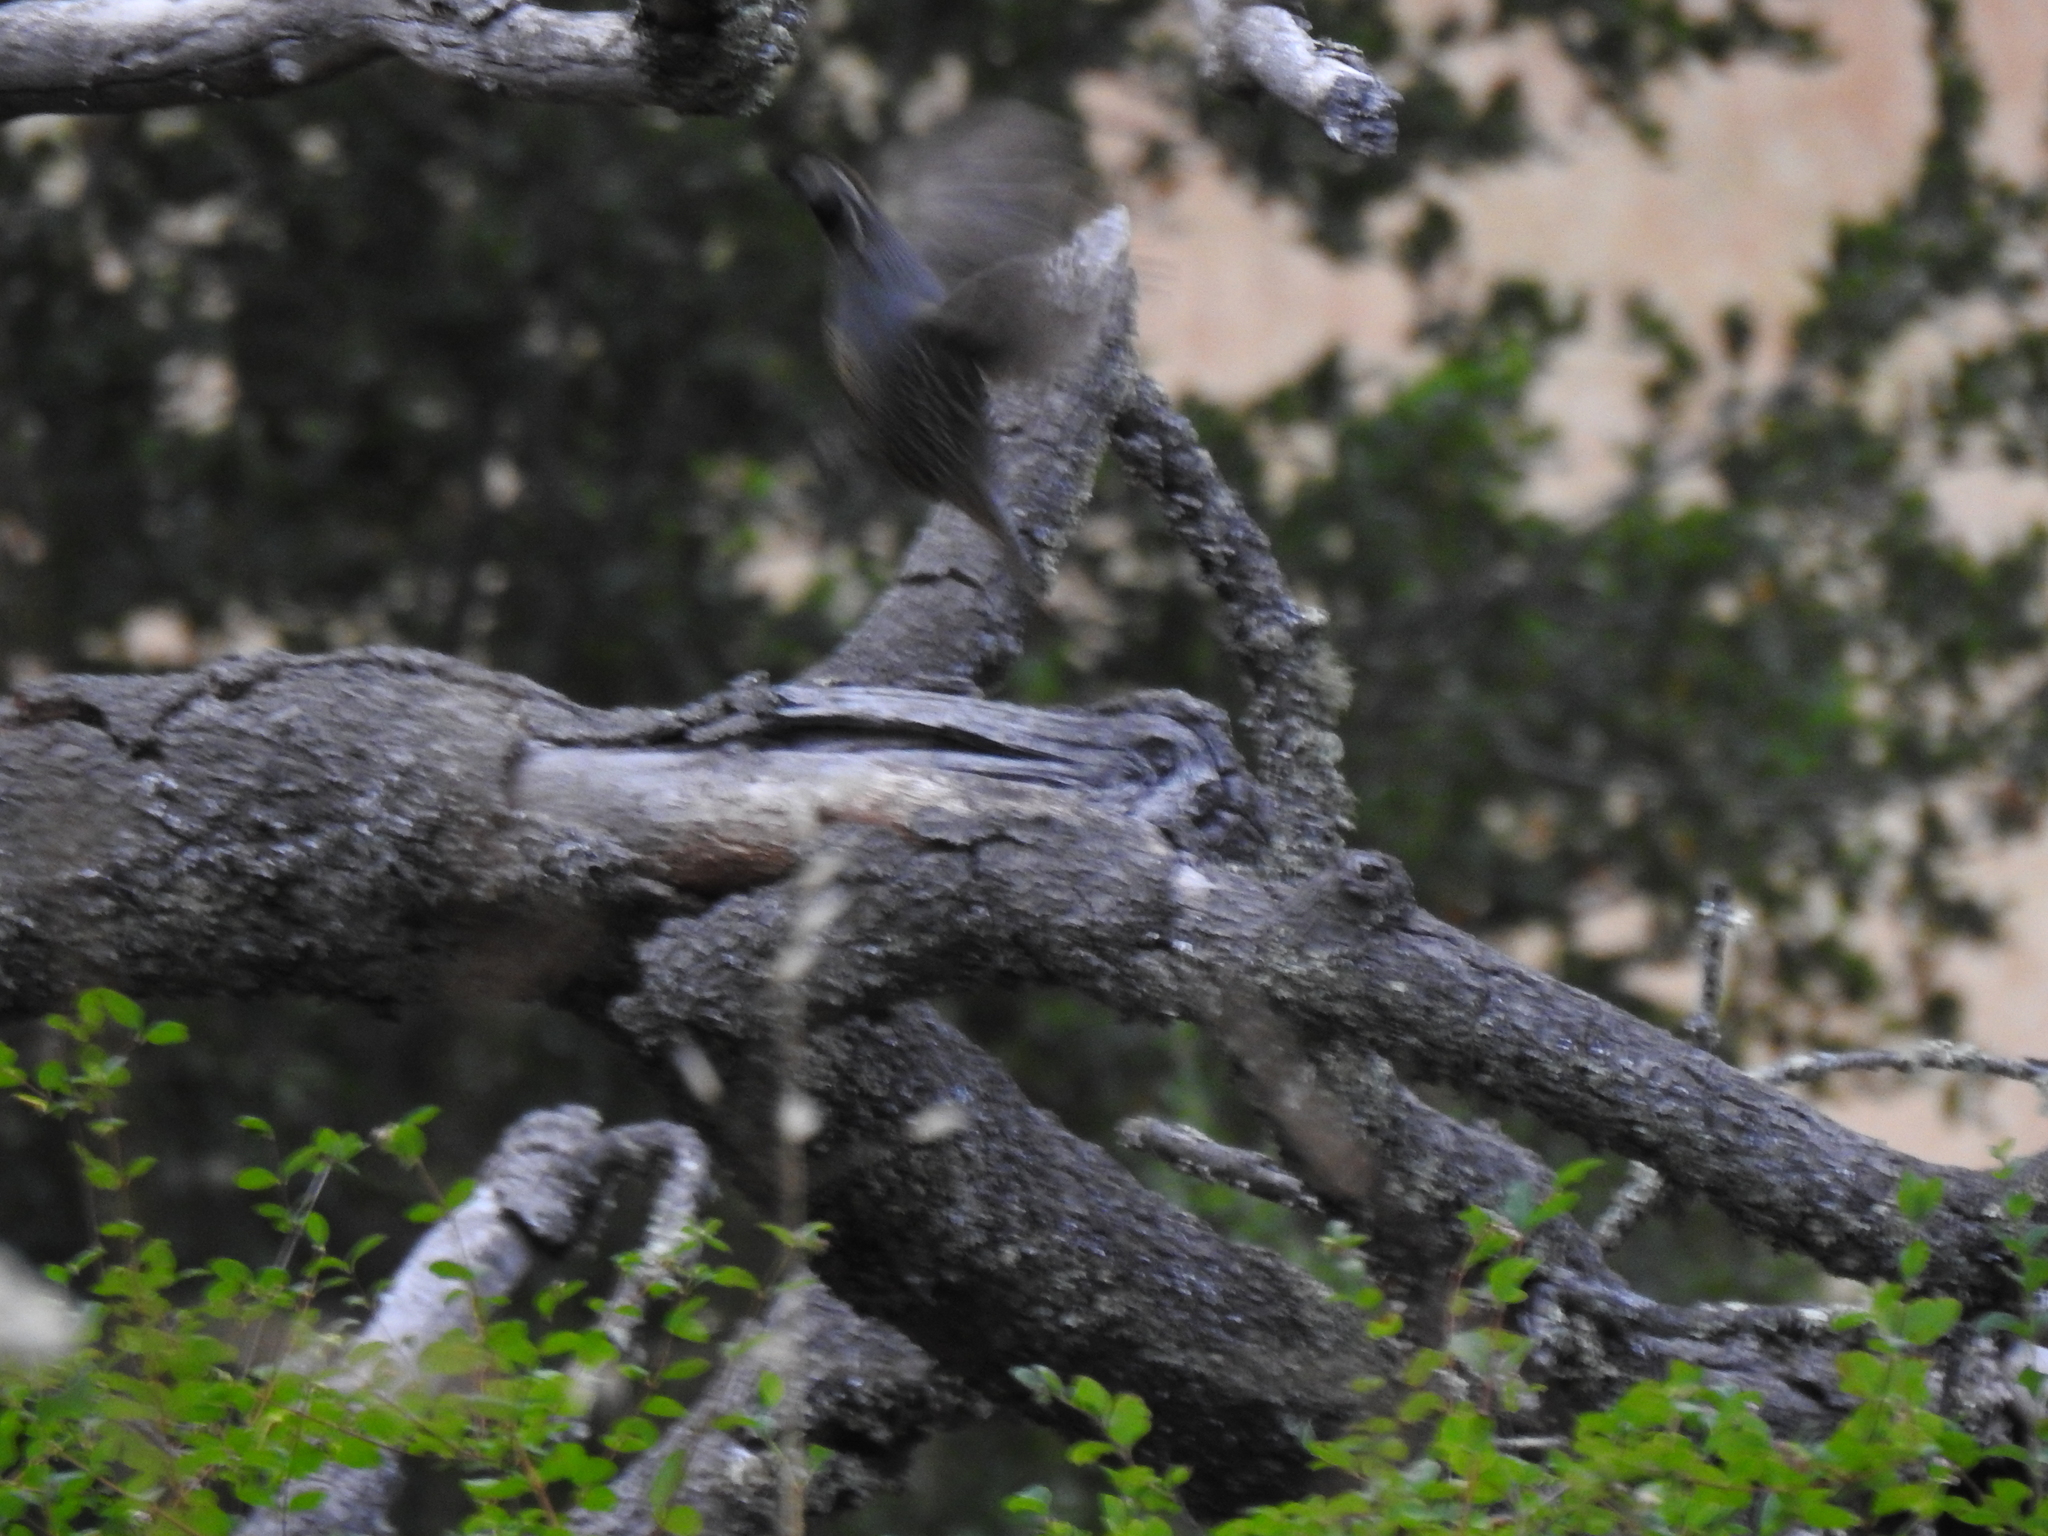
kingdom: Animalia
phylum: Chordata
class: Aves
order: Galliformes
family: Odontophoridae
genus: Callipepla
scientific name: Callipepla californica
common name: California quail
